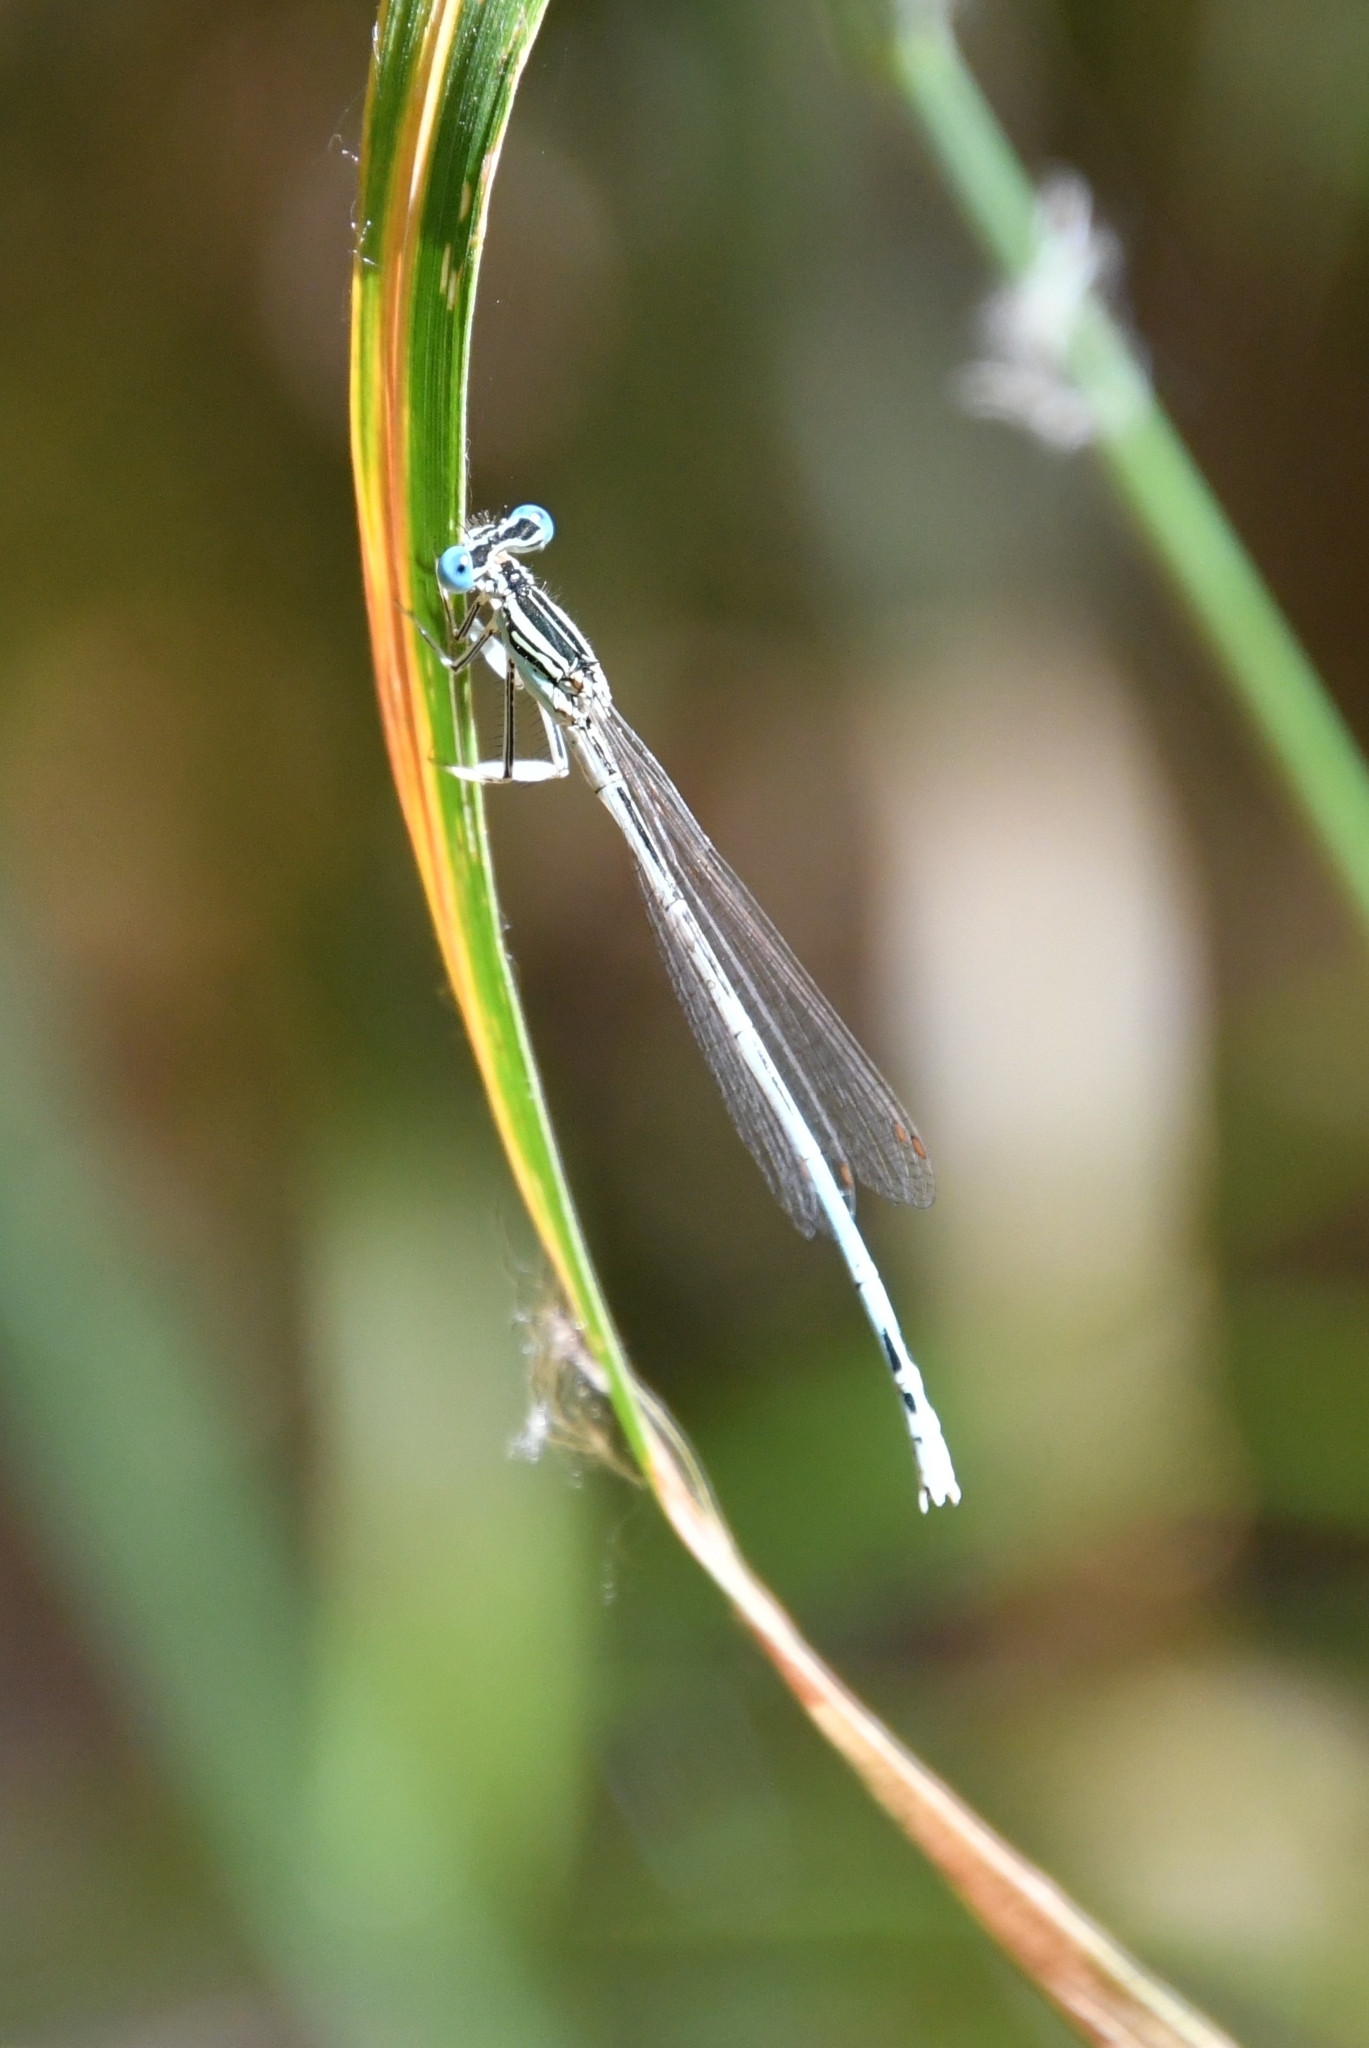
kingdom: Animalia
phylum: Arthropoda
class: Insecta
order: Odonata
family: Platycnemididae
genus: Platycnemis
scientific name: Platycnemis pennipes
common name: White-legged damselfly
